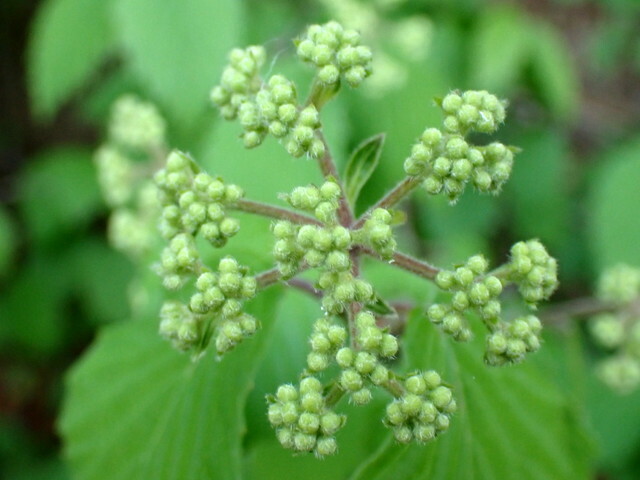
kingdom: Plantae
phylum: Tracheophyta
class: Magnoliopsida
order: Dipsacales
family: Viburnaceae
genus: Viburnum
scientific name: Viburnum scabrellum
